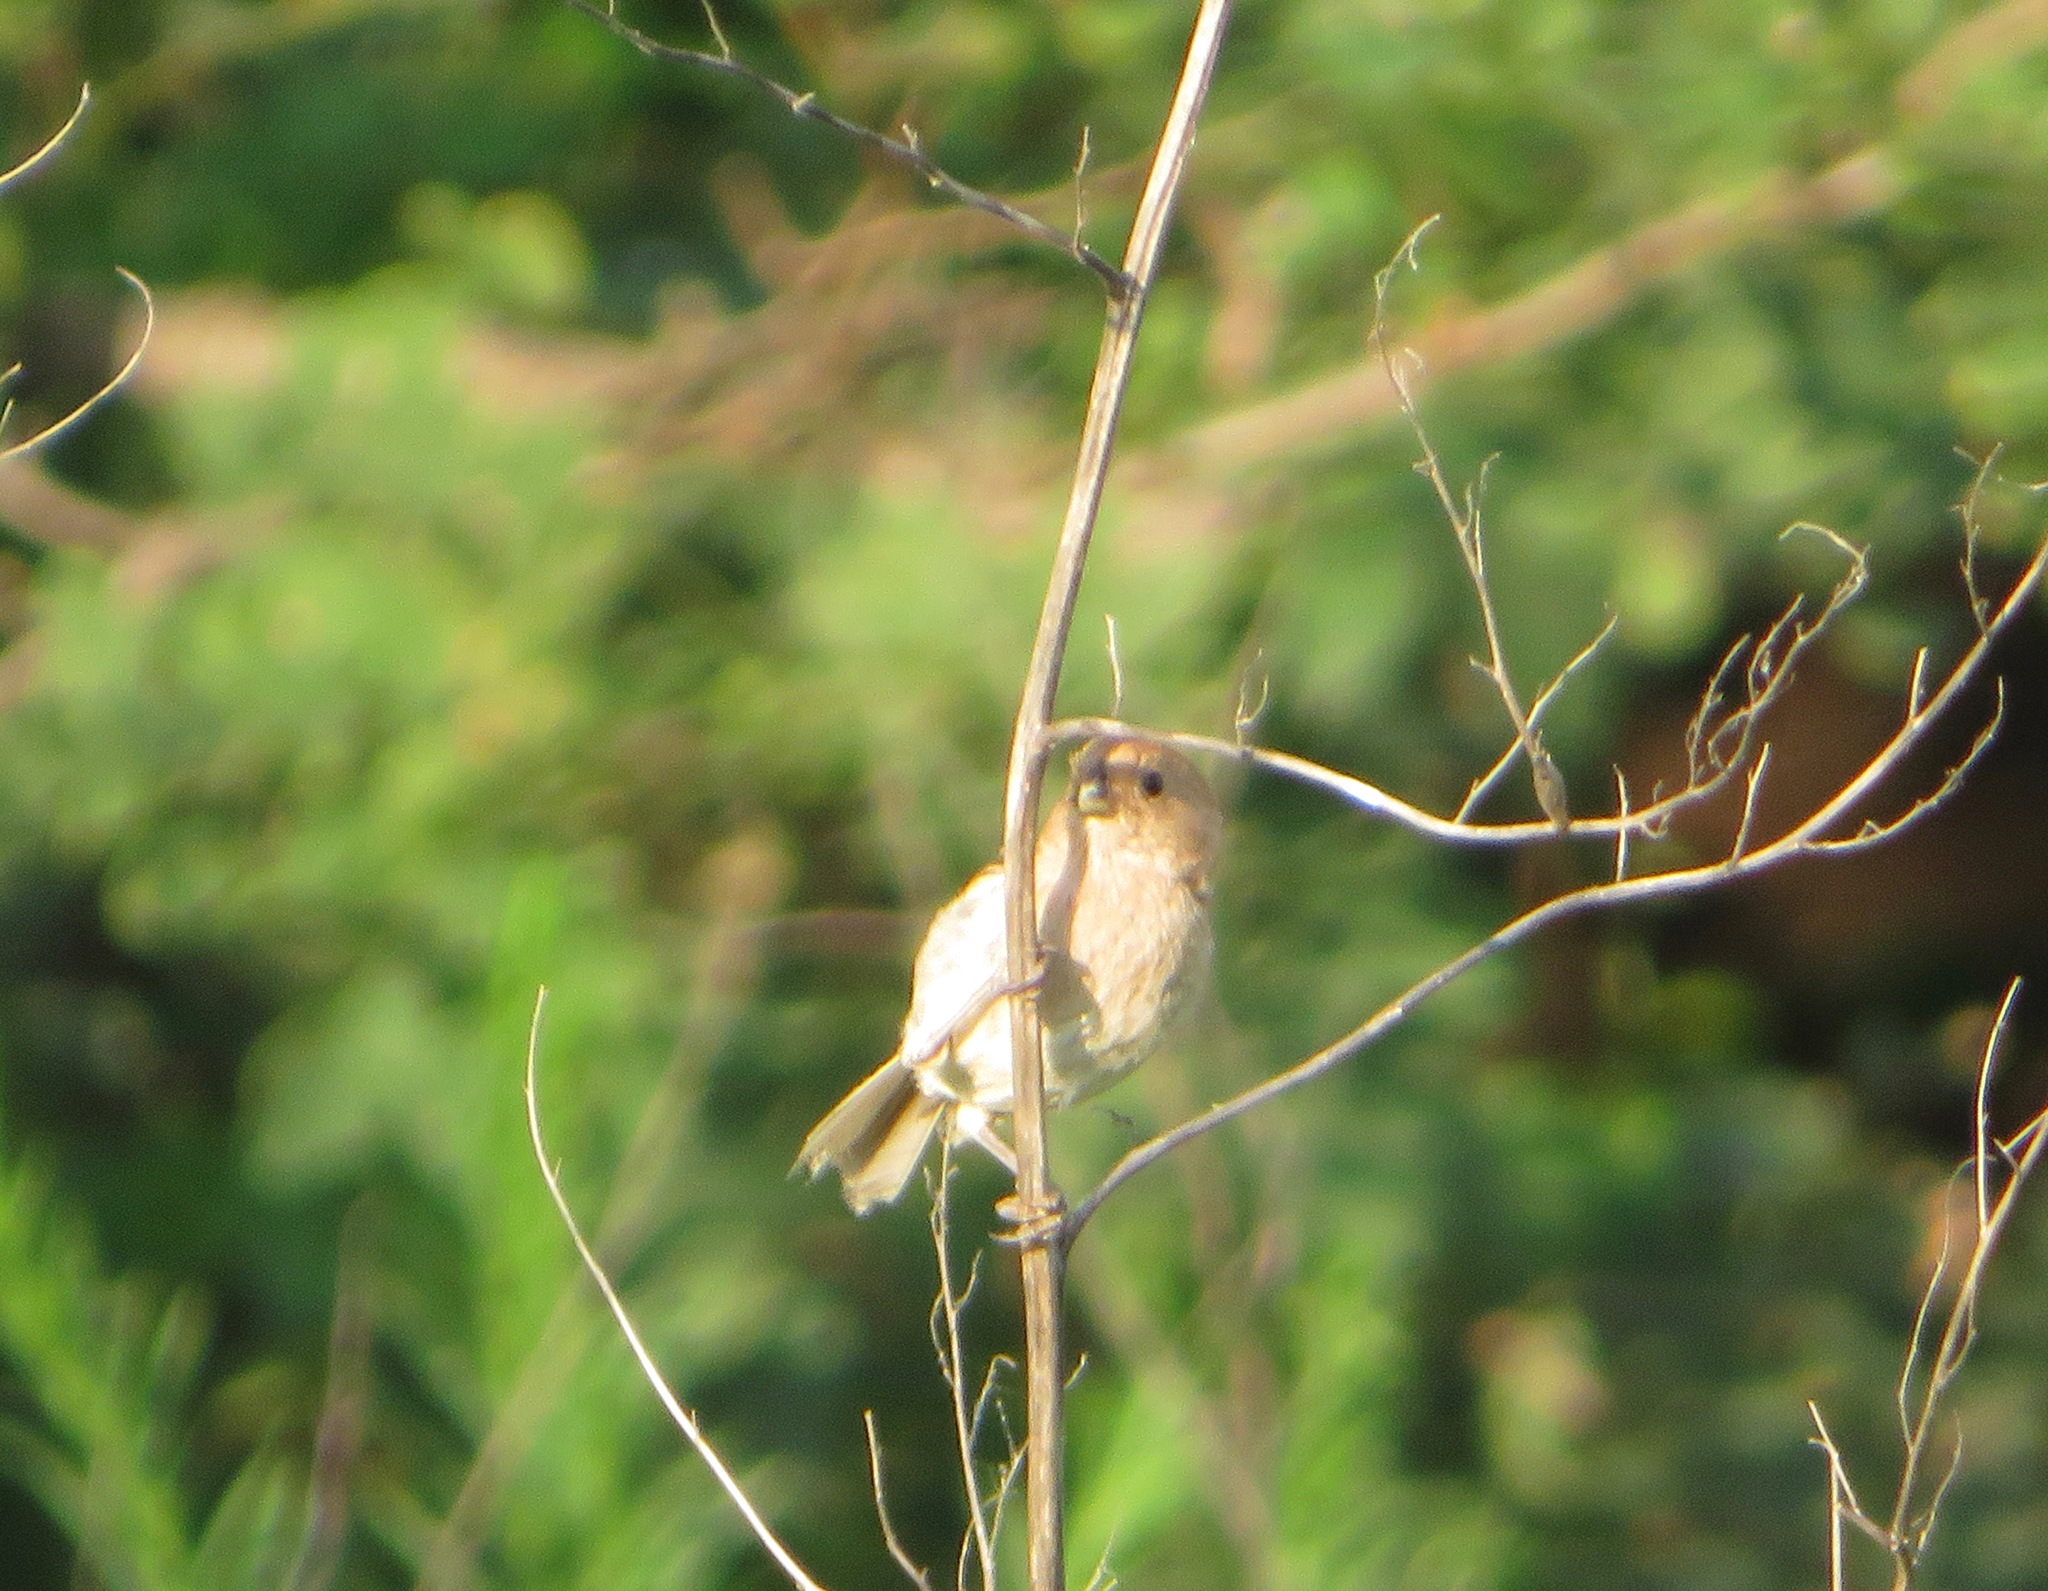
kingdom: Animalia
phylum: Chordata
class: Aves
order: Passeriformes
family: Sylviidae
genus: Sinosuthora
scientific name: Sinosuthora webbiana
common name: Vinous-throated parrotbill
